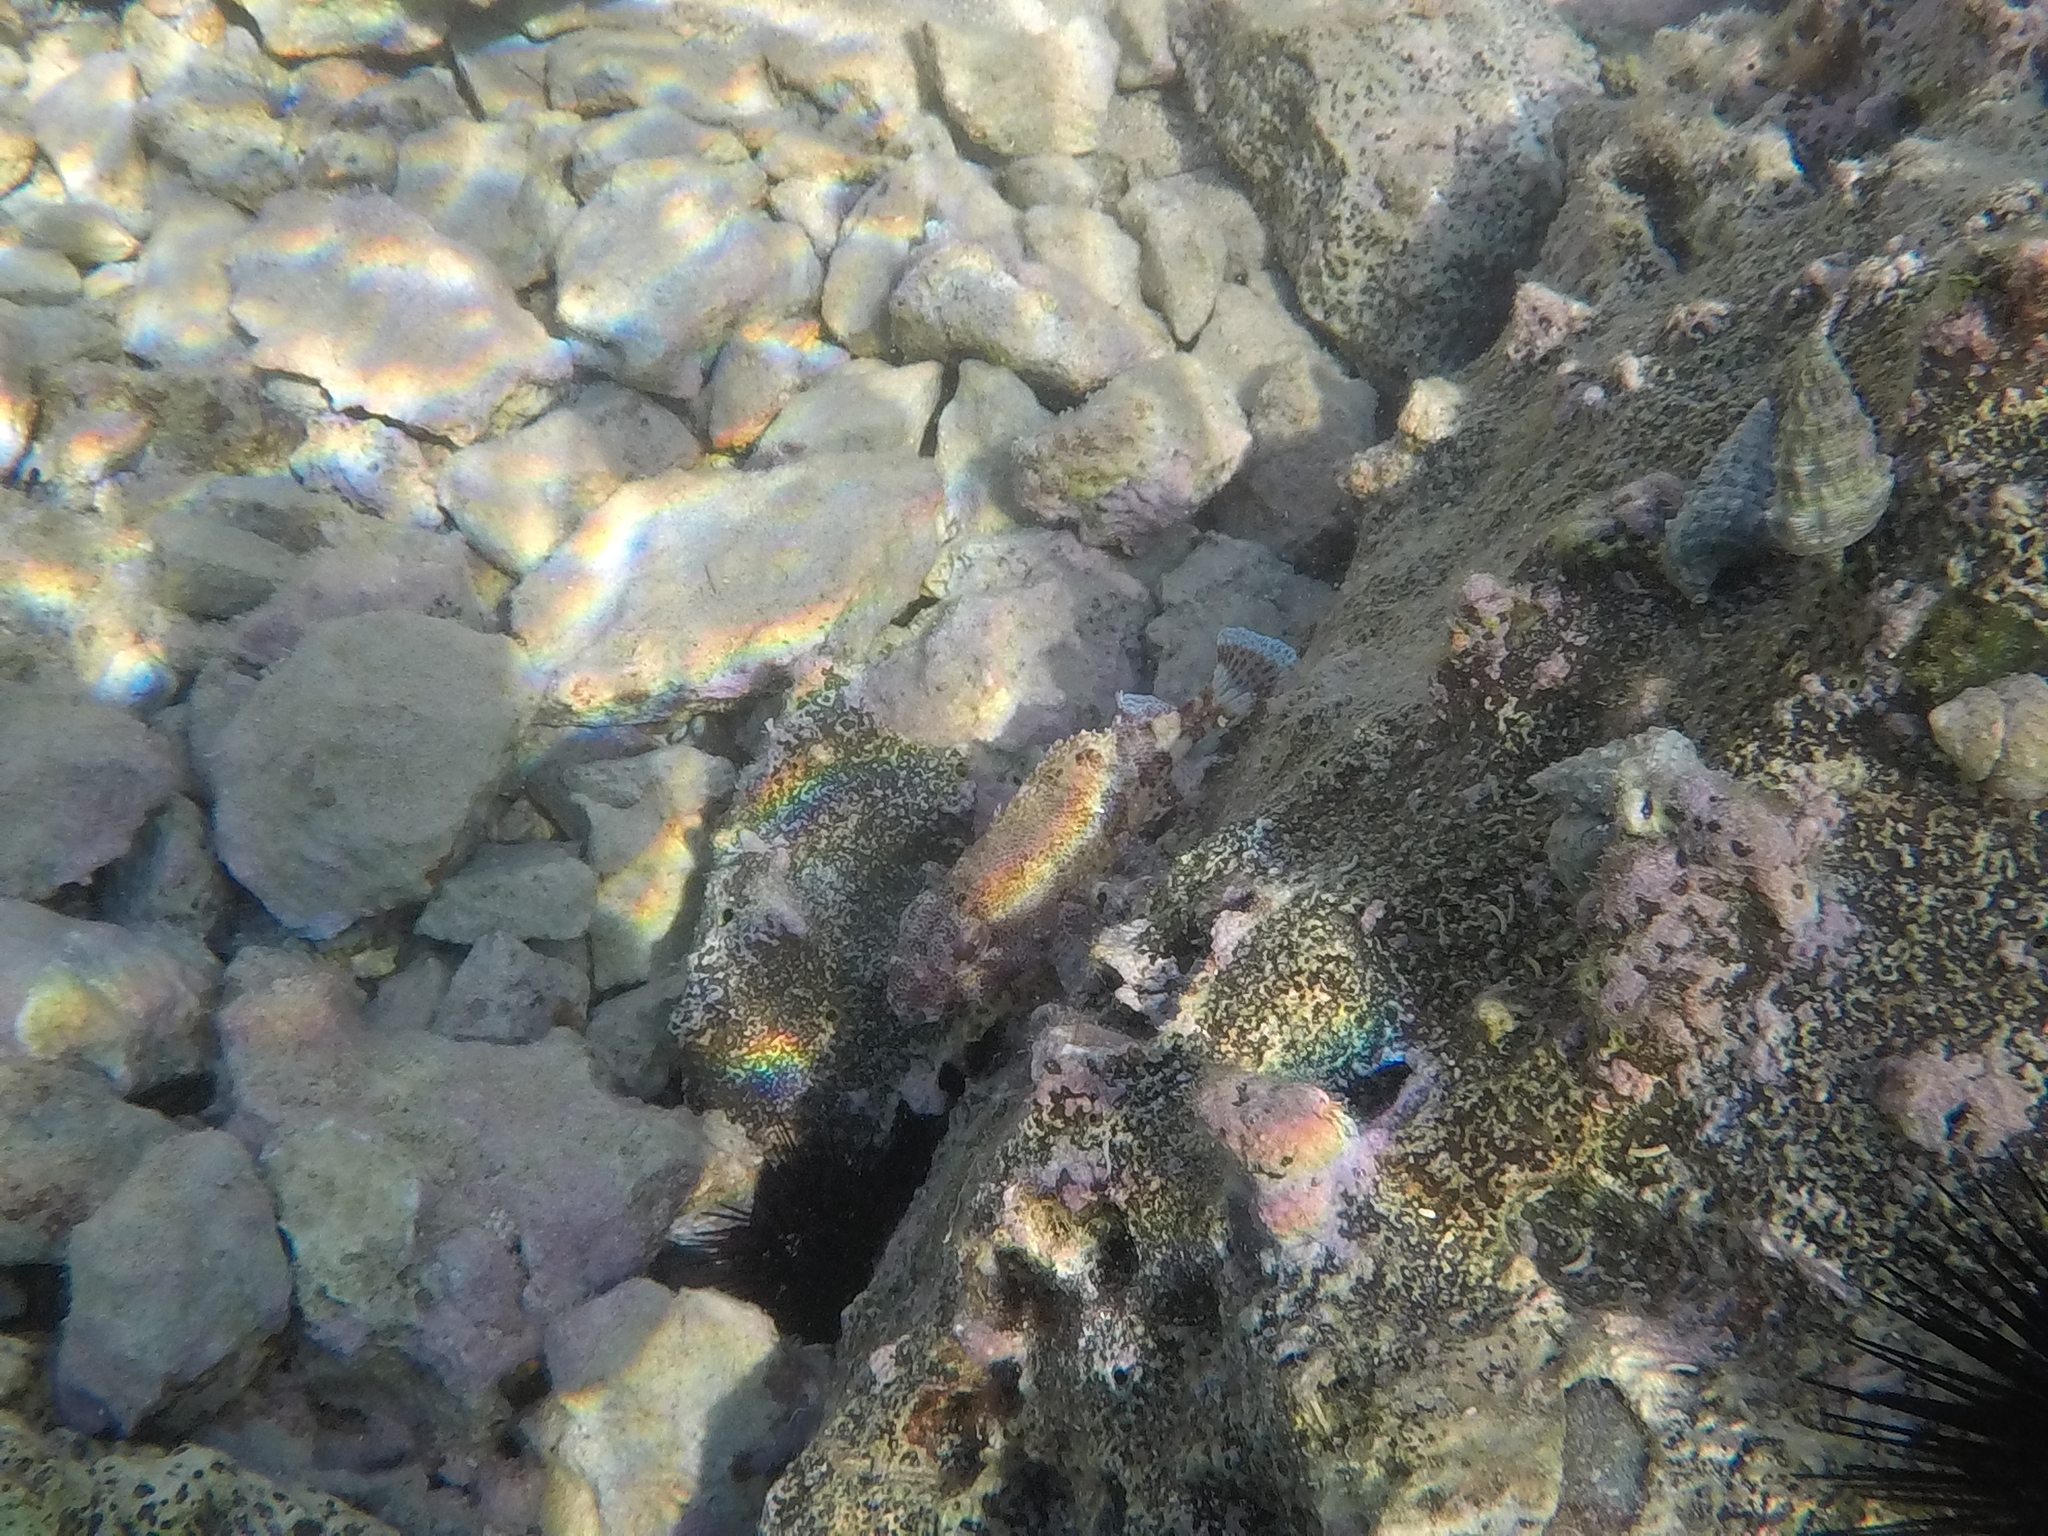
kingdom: Animalia
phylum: Chordata
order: Scorpaeniformes
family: Scorpaenidae
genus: Scorpaena
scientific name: Scorpaena maderensis
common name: Madeira rockfish
